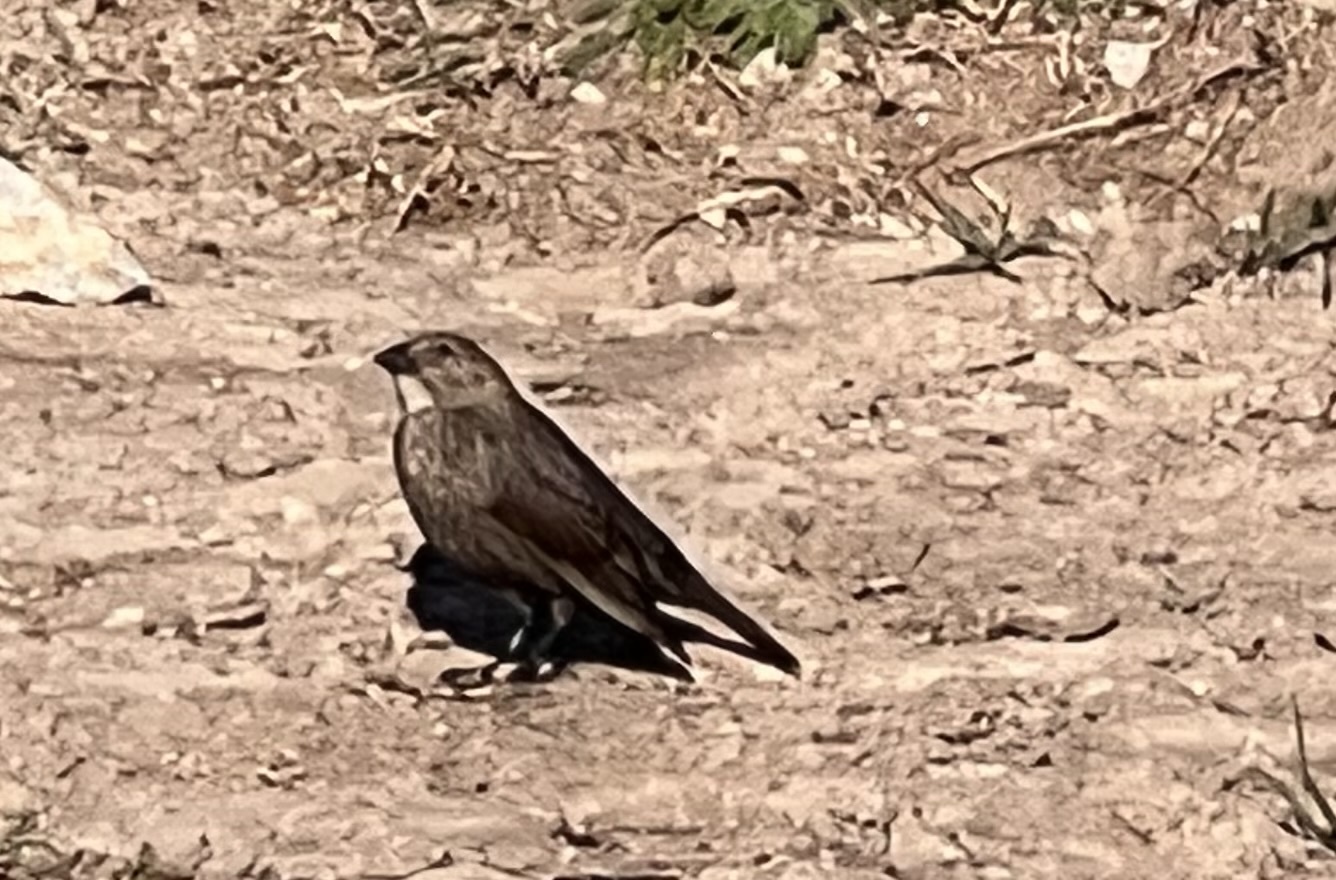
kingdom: Animalia
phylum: Chordata
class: Aves
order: Passeriformes
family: Icteridae
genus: Molothrus
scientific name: Molothrus ater
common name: Brown-headed cowbird
